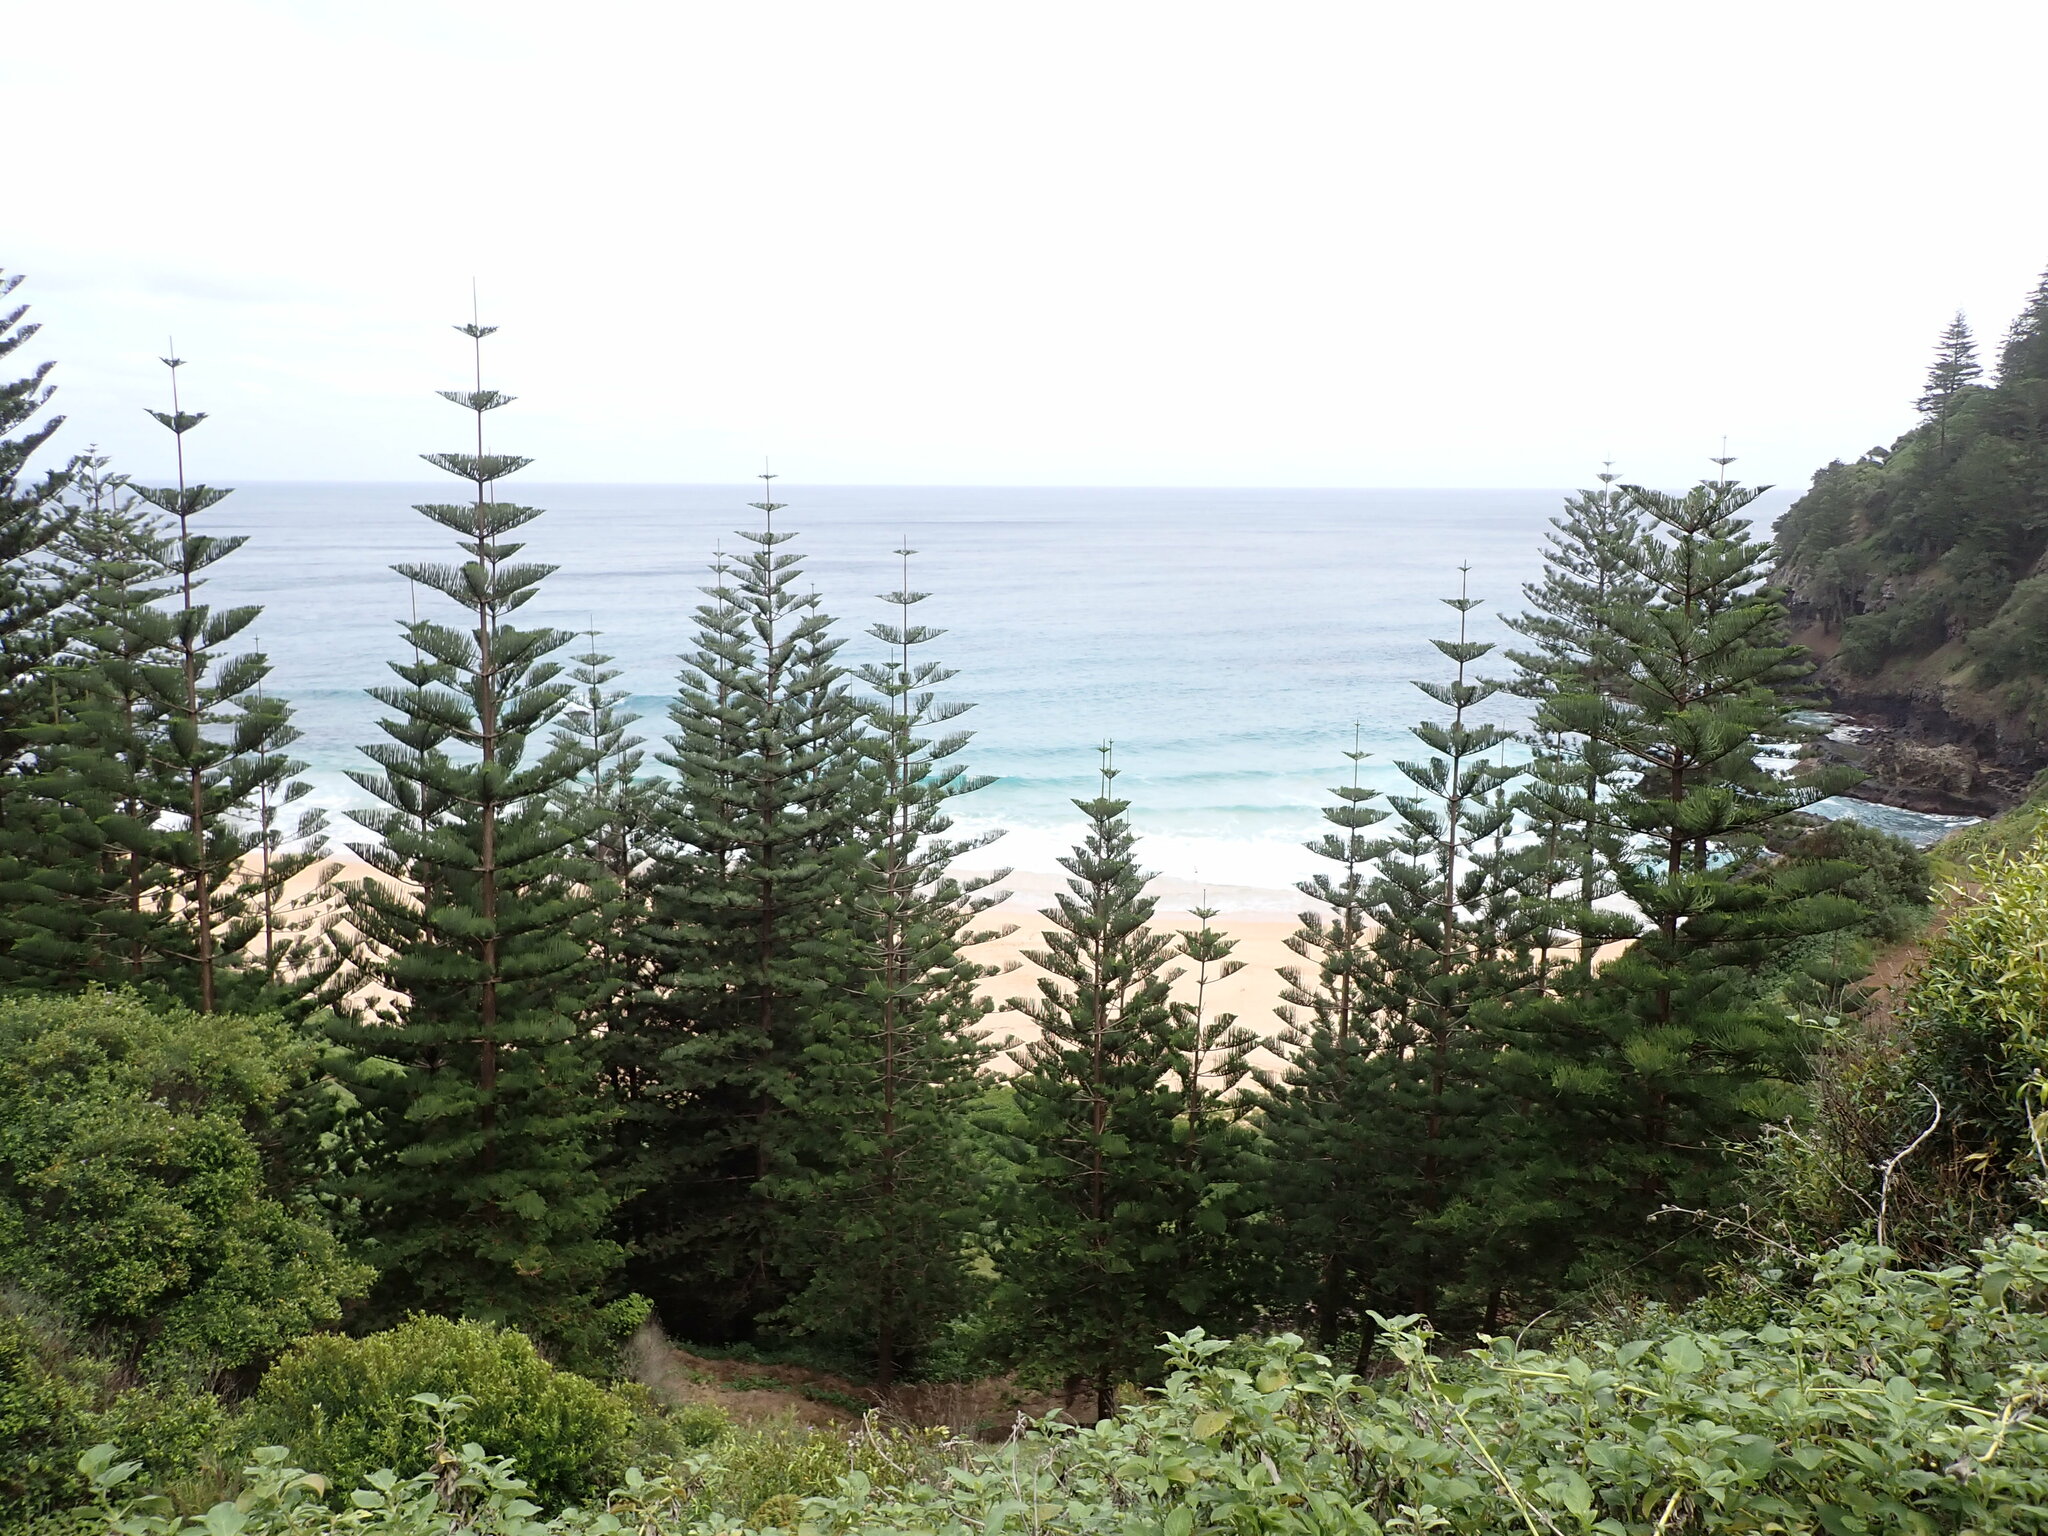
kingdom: Plantae
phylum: Tracheophyta
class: Pinopsida
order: Pinales
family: Araucariaceae
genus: Araucaria
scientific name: Araucaria heterophylla
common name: Norfolk island pine
